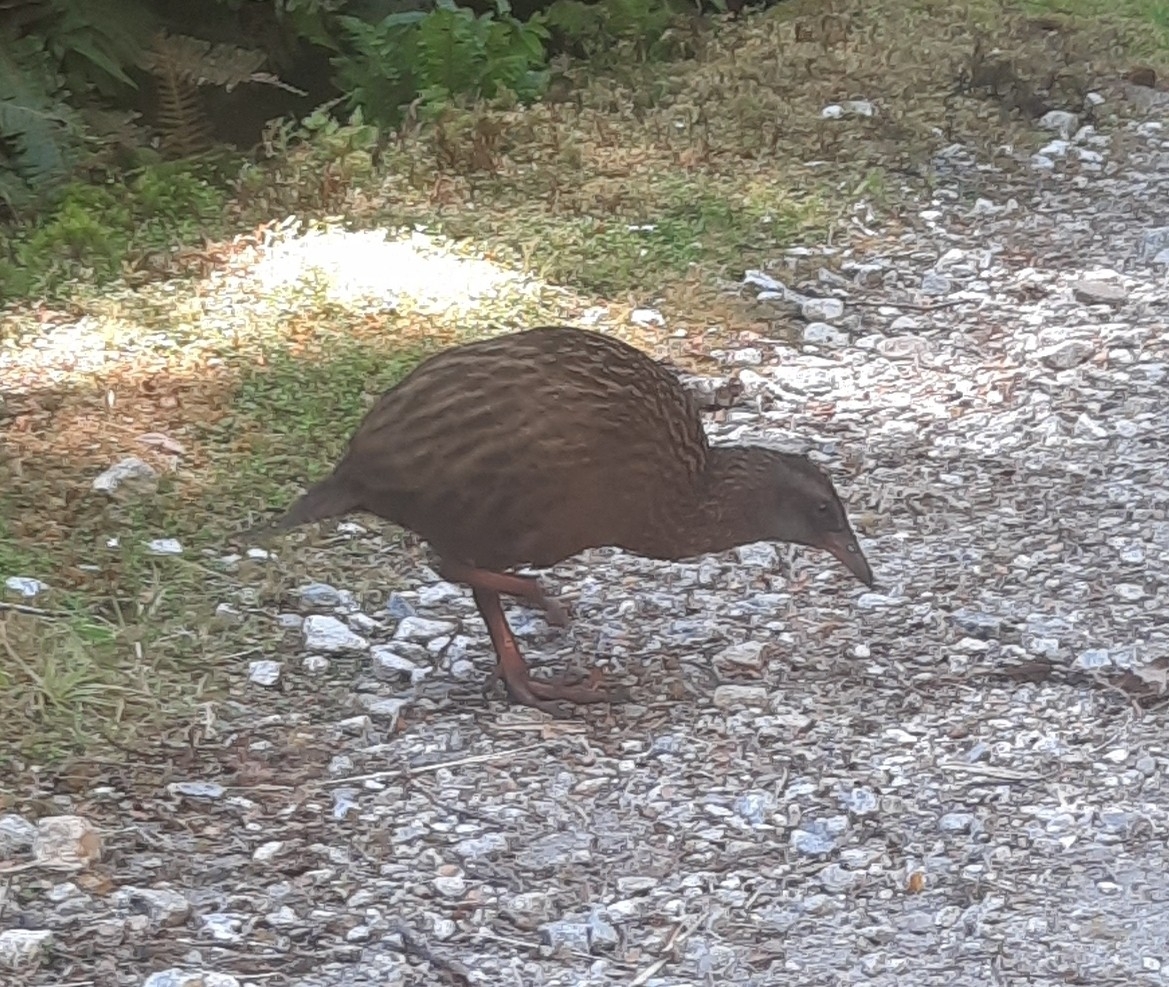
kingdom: Animalia
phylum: Chordata
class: Aves
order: Gruiformes
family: Rallidae
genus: Gallirallus
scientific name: Gallirallus australis
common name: Weka
